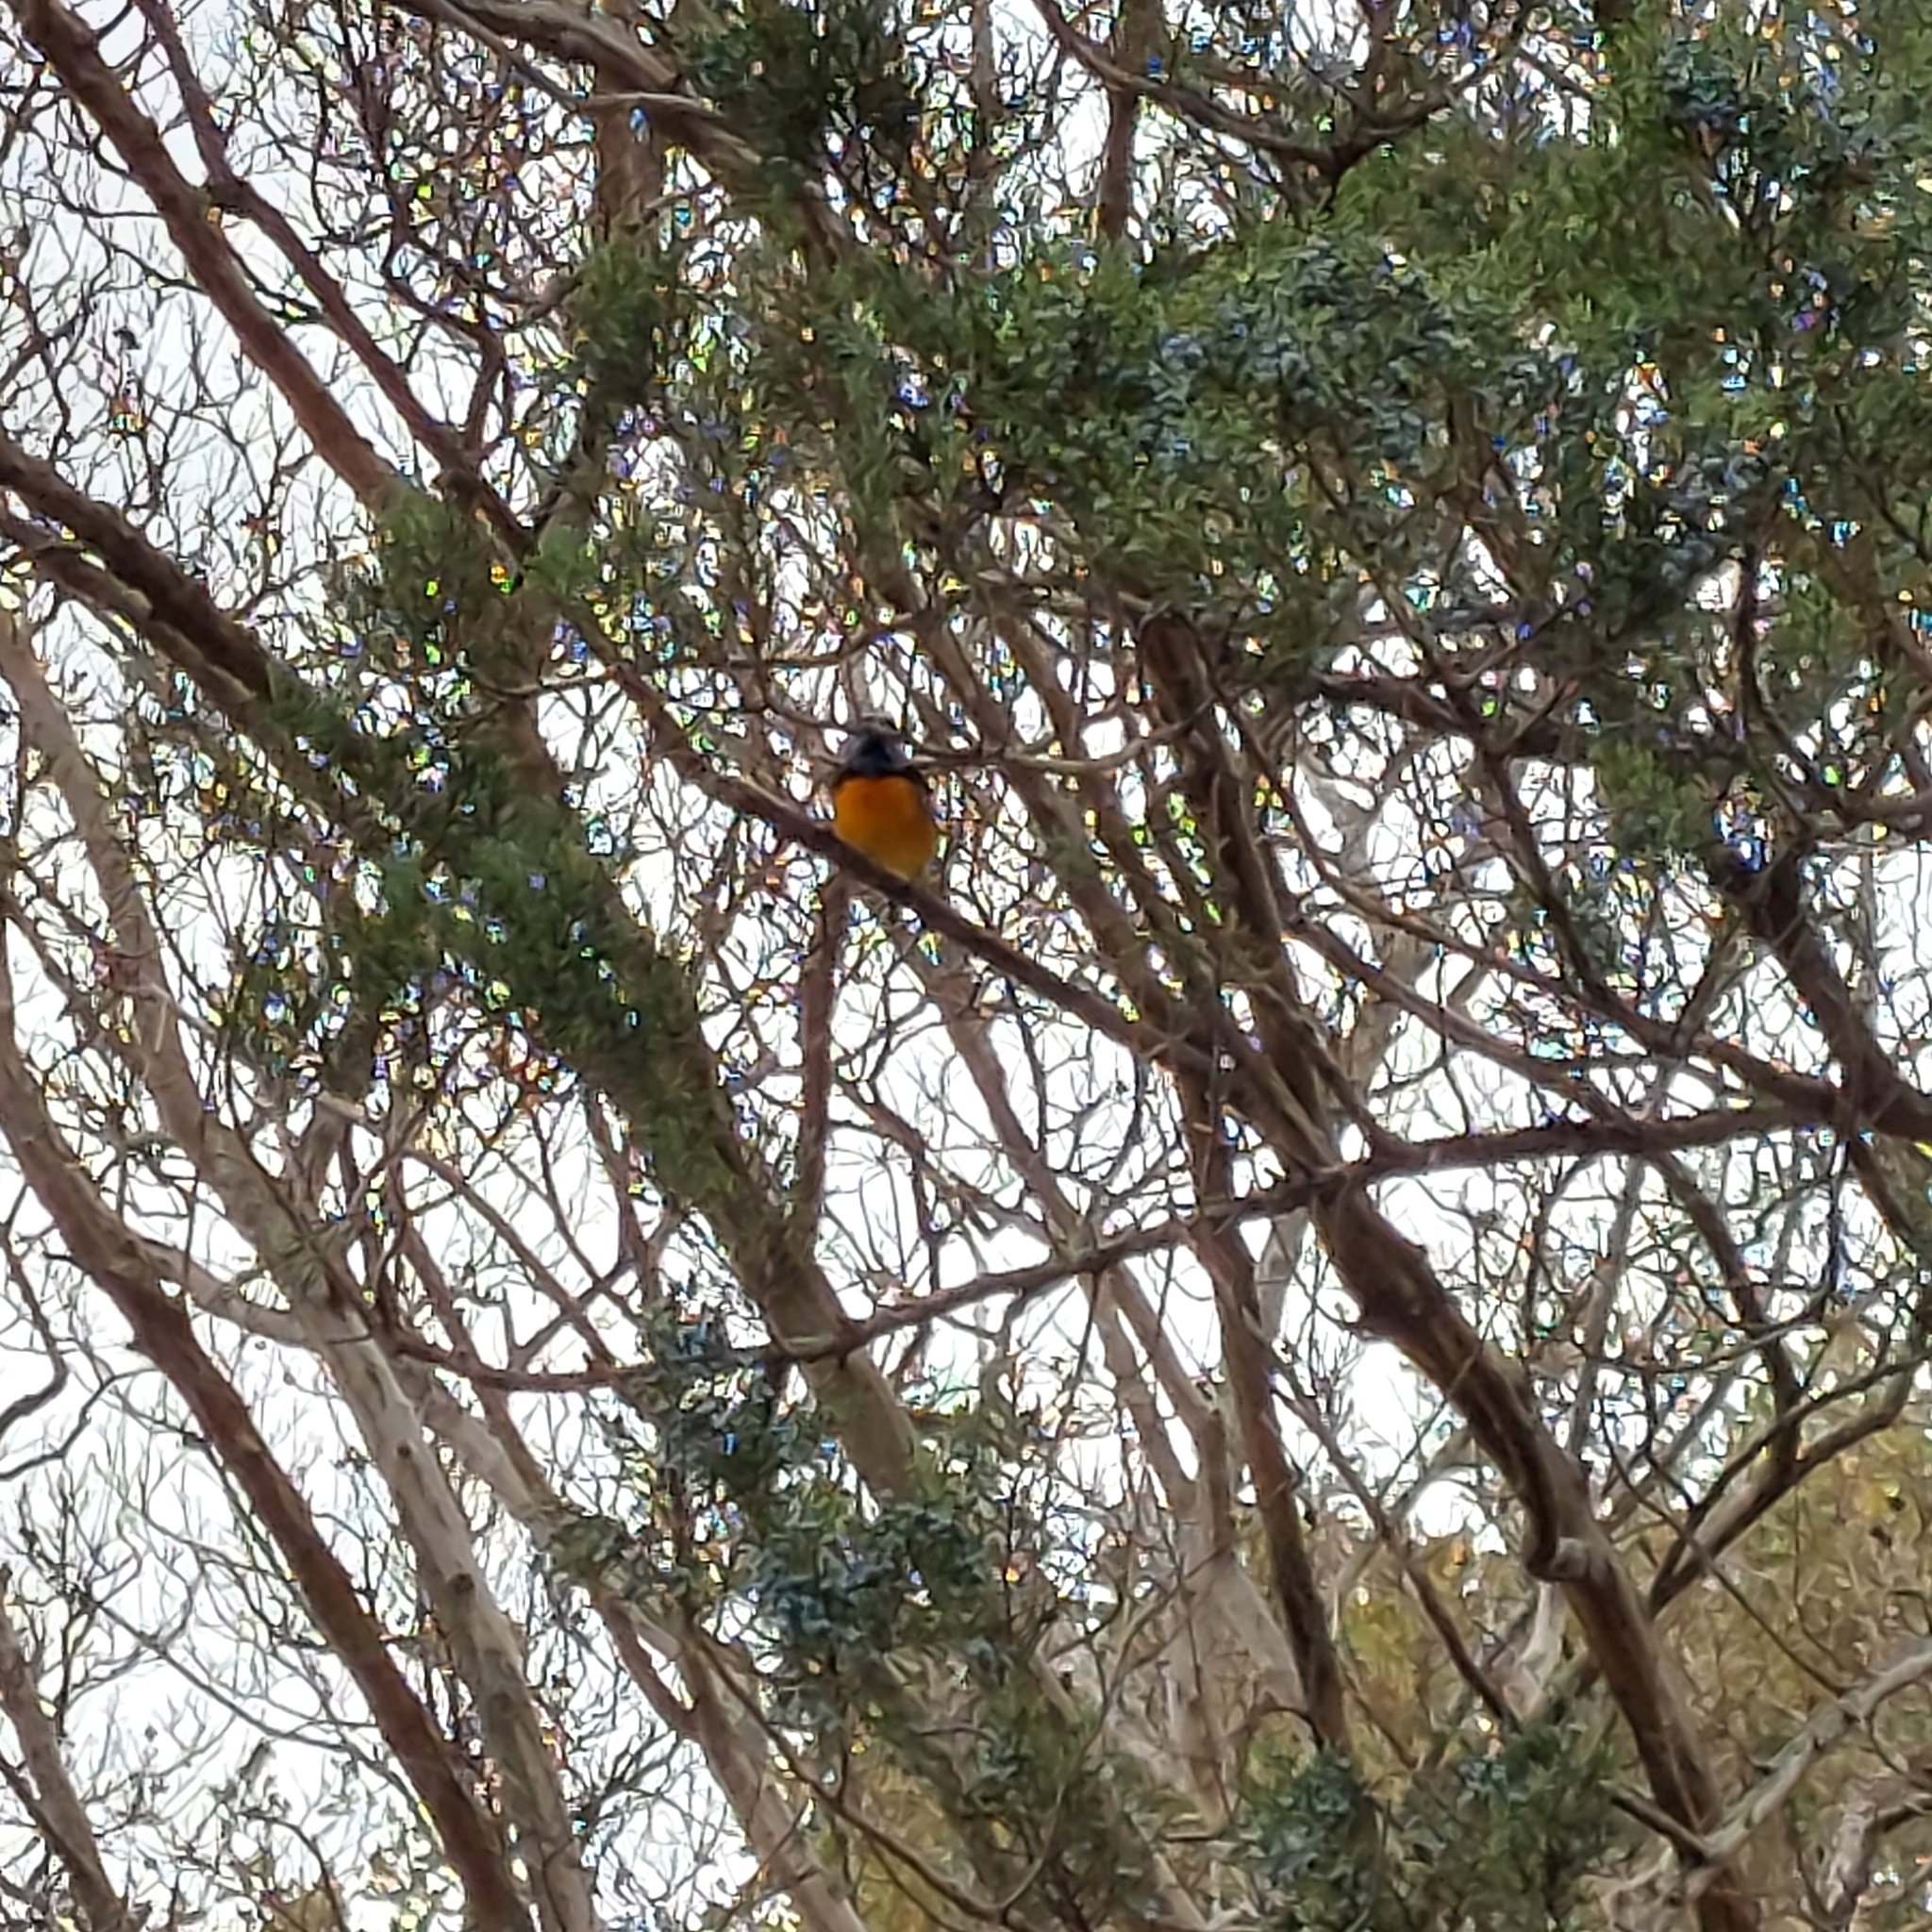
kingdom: Animalia
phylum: Chordata
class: Aves
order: Passeriformes
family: Thraupidae
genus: Rauenia
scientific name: Rauenia bonariensis
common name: Blue-and-yellow tanager
